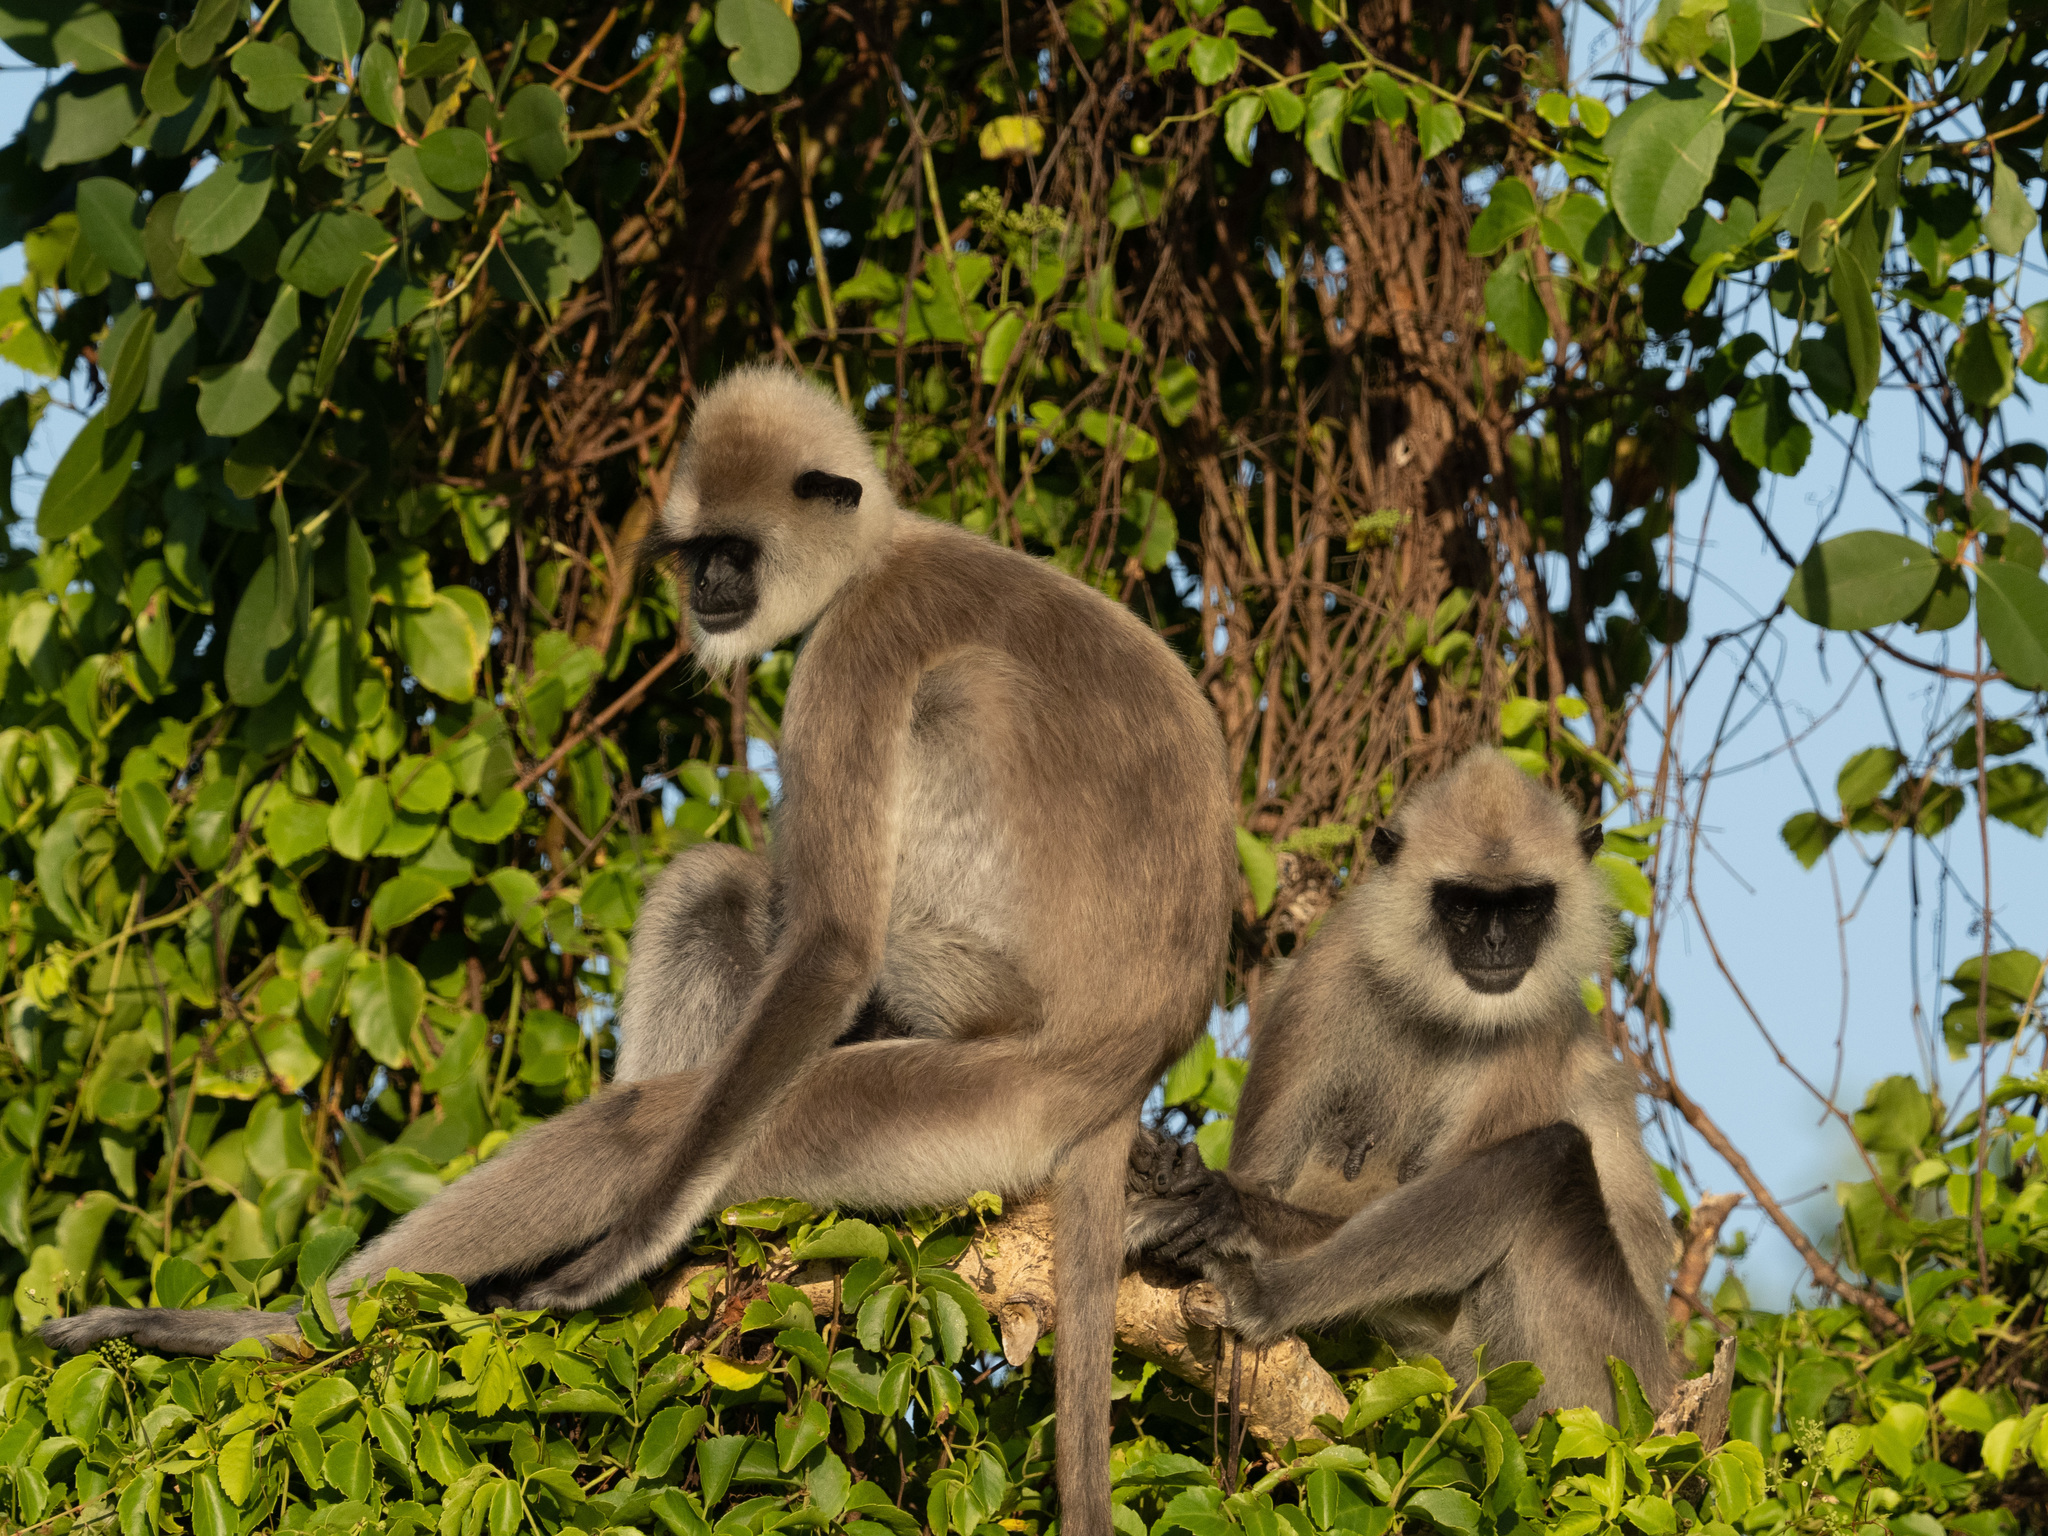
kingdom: Animalia
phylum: Chordata
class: Mammalia
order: Primates
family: Cercopithecidae
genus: Semnopithecus
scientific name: Semnopithecus priam
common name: Tufted gray langur
